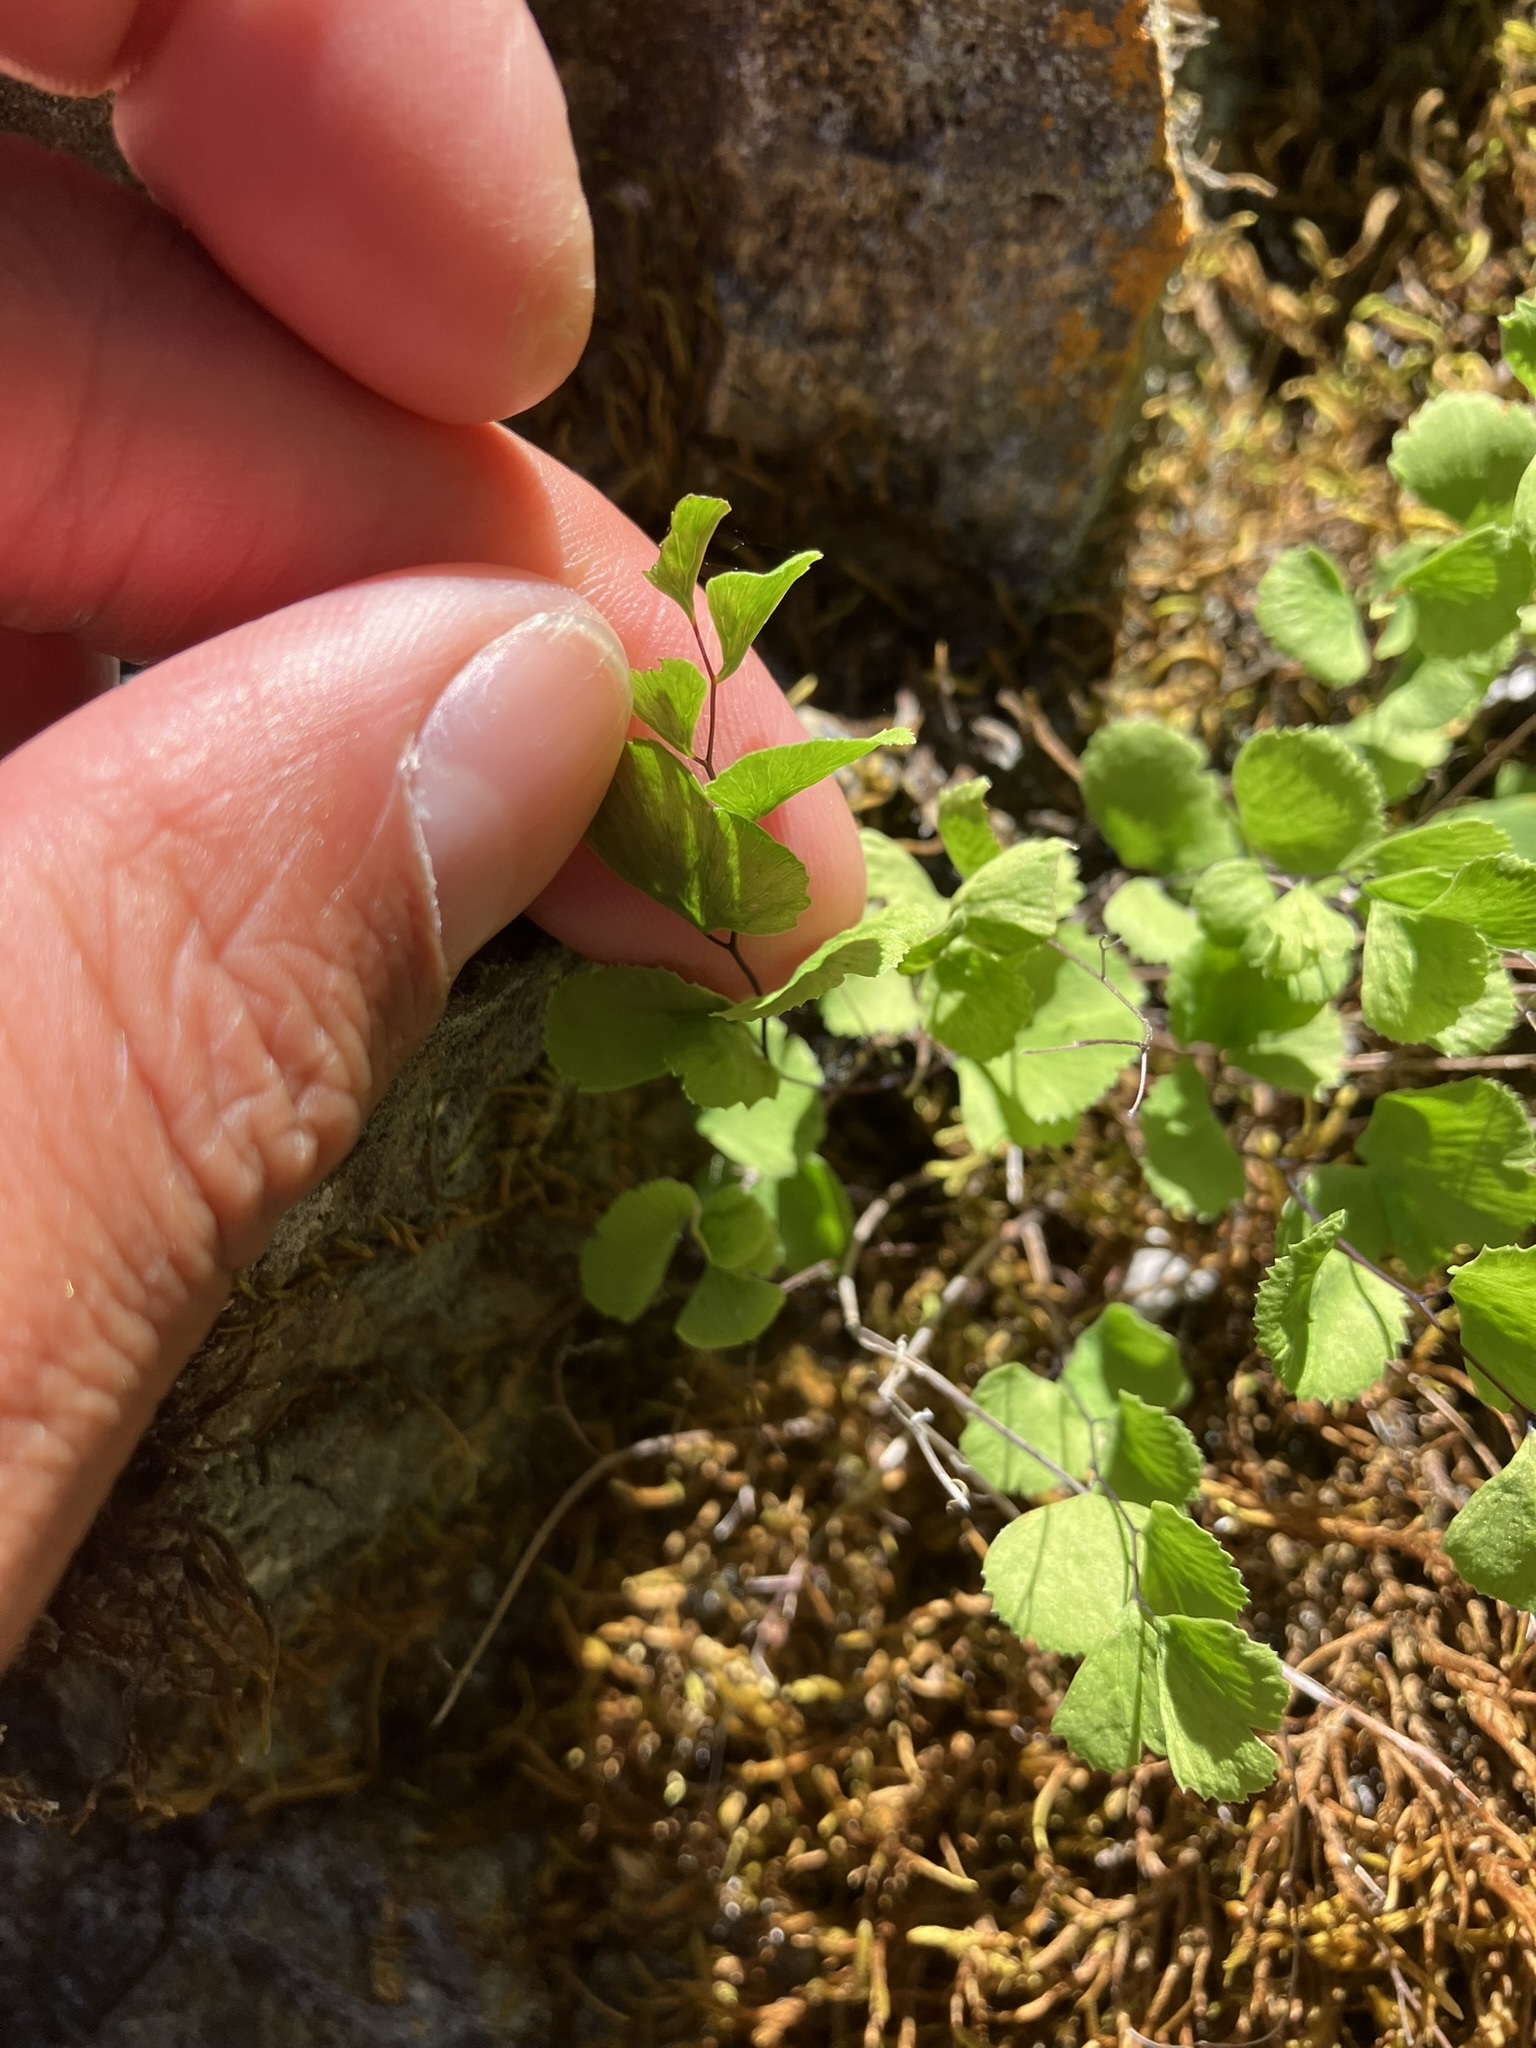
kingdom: Plantae
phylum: Tracheophyta
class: Polypodiopsida
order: Polypodiales
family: Pteridaceae
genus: Adiantum
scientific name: Adiantum jordanii
